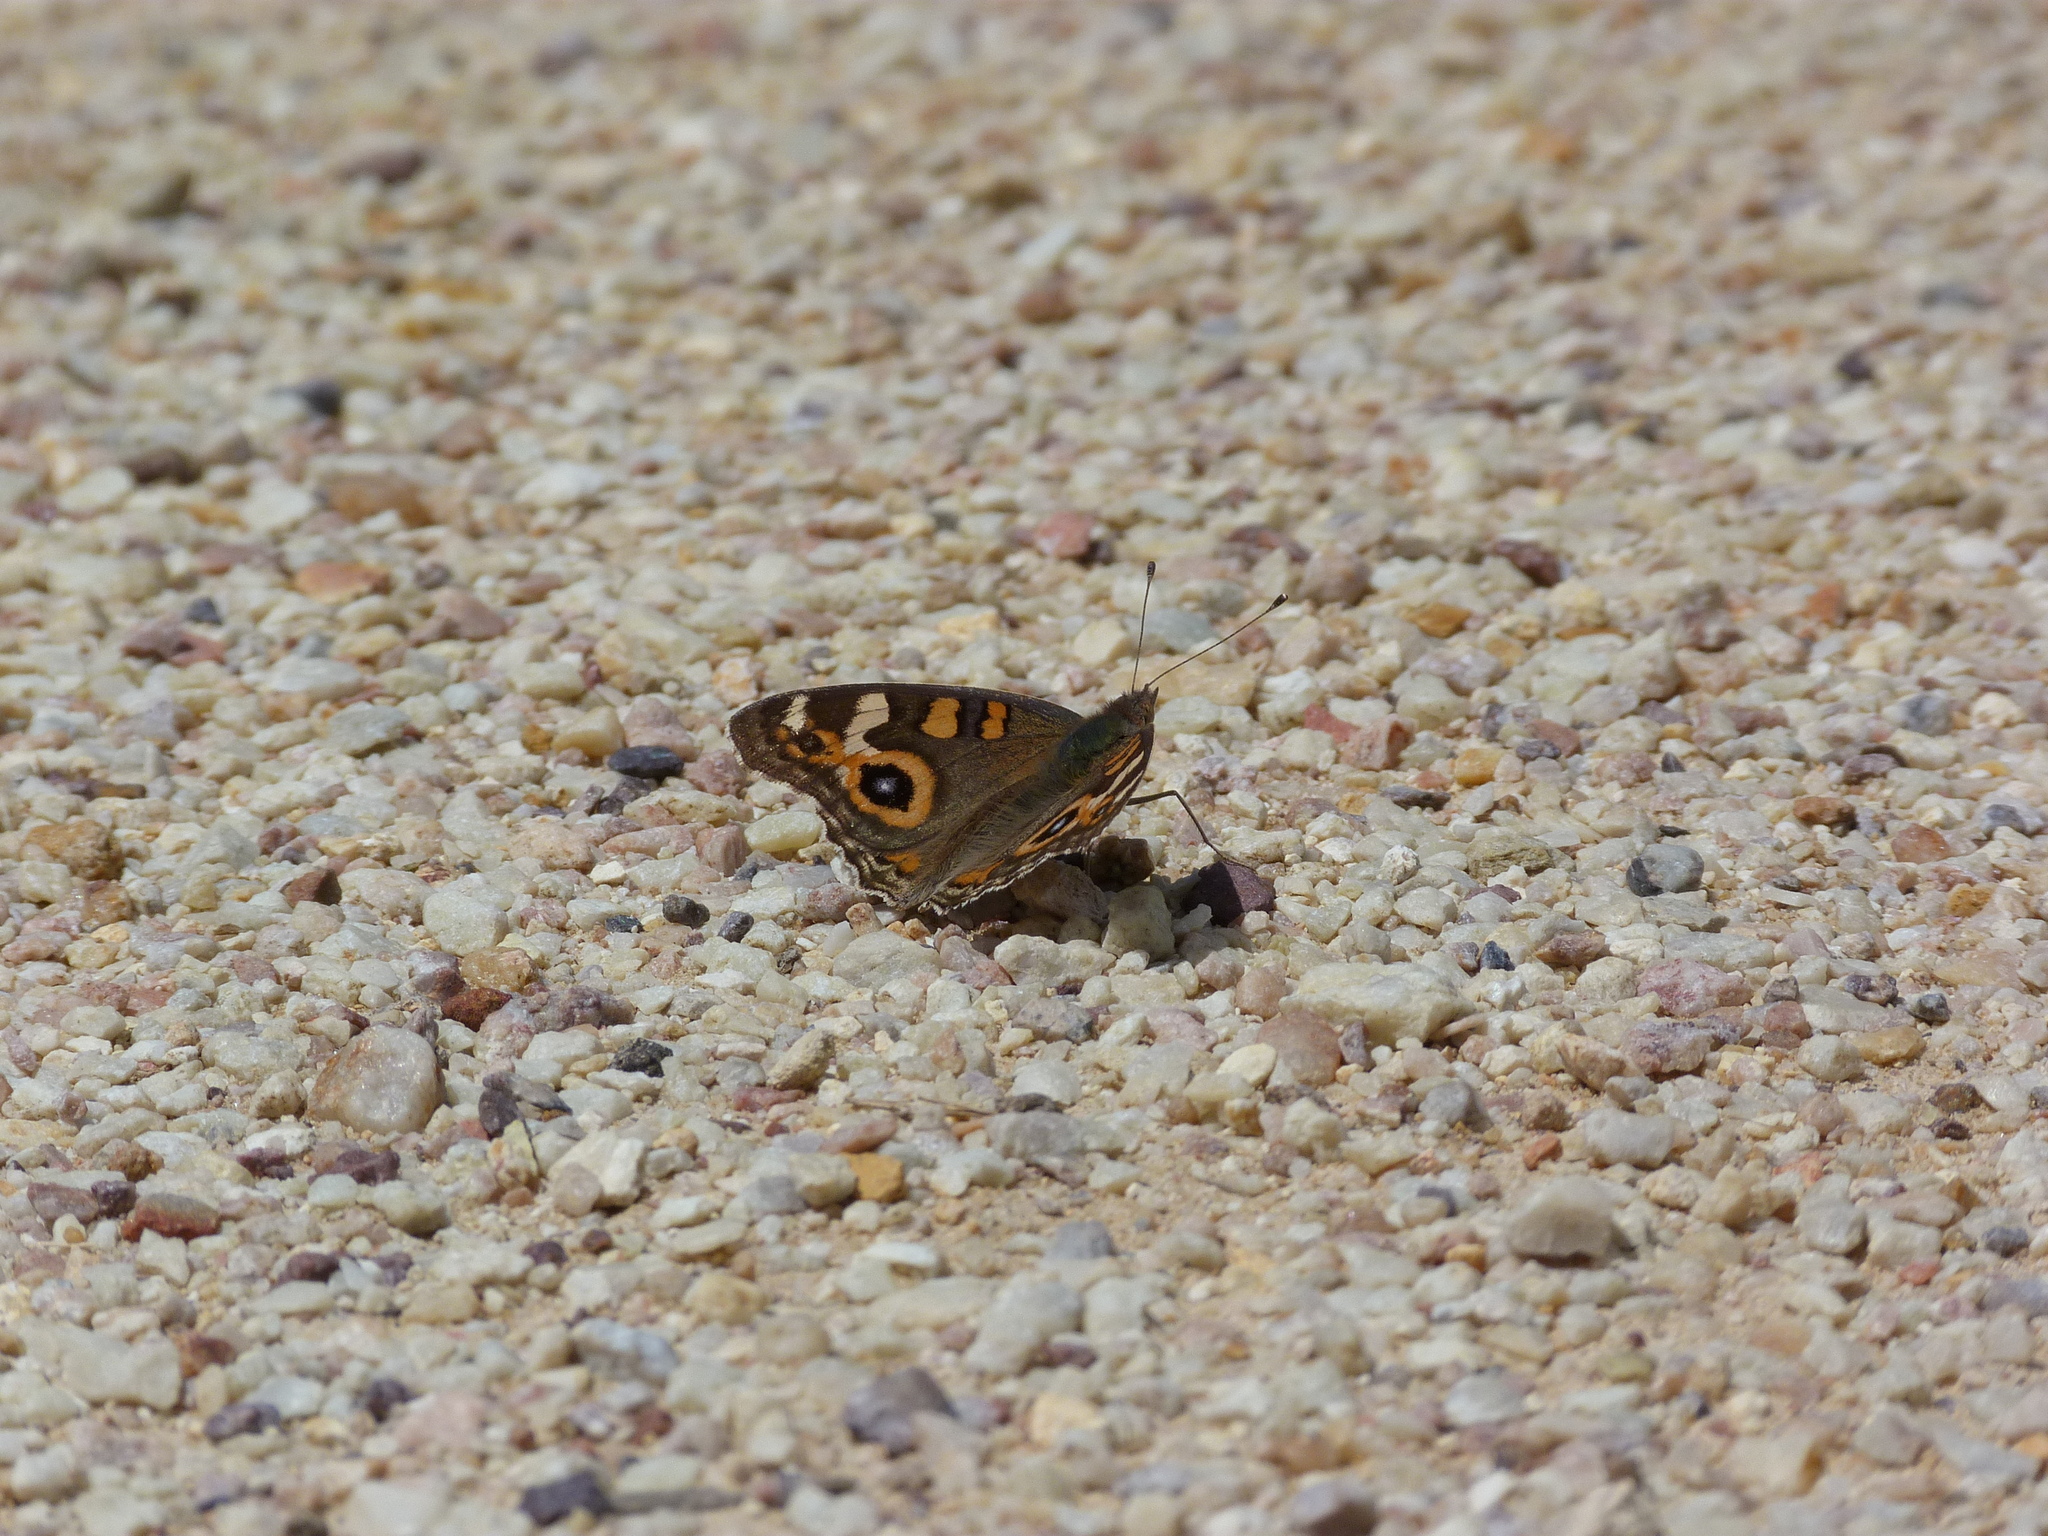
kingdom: Animalia
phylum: Arthropoda
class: Insecta
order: Lepidoptera
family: Nymphalidae
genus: Junonia
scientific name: Junonia villida
